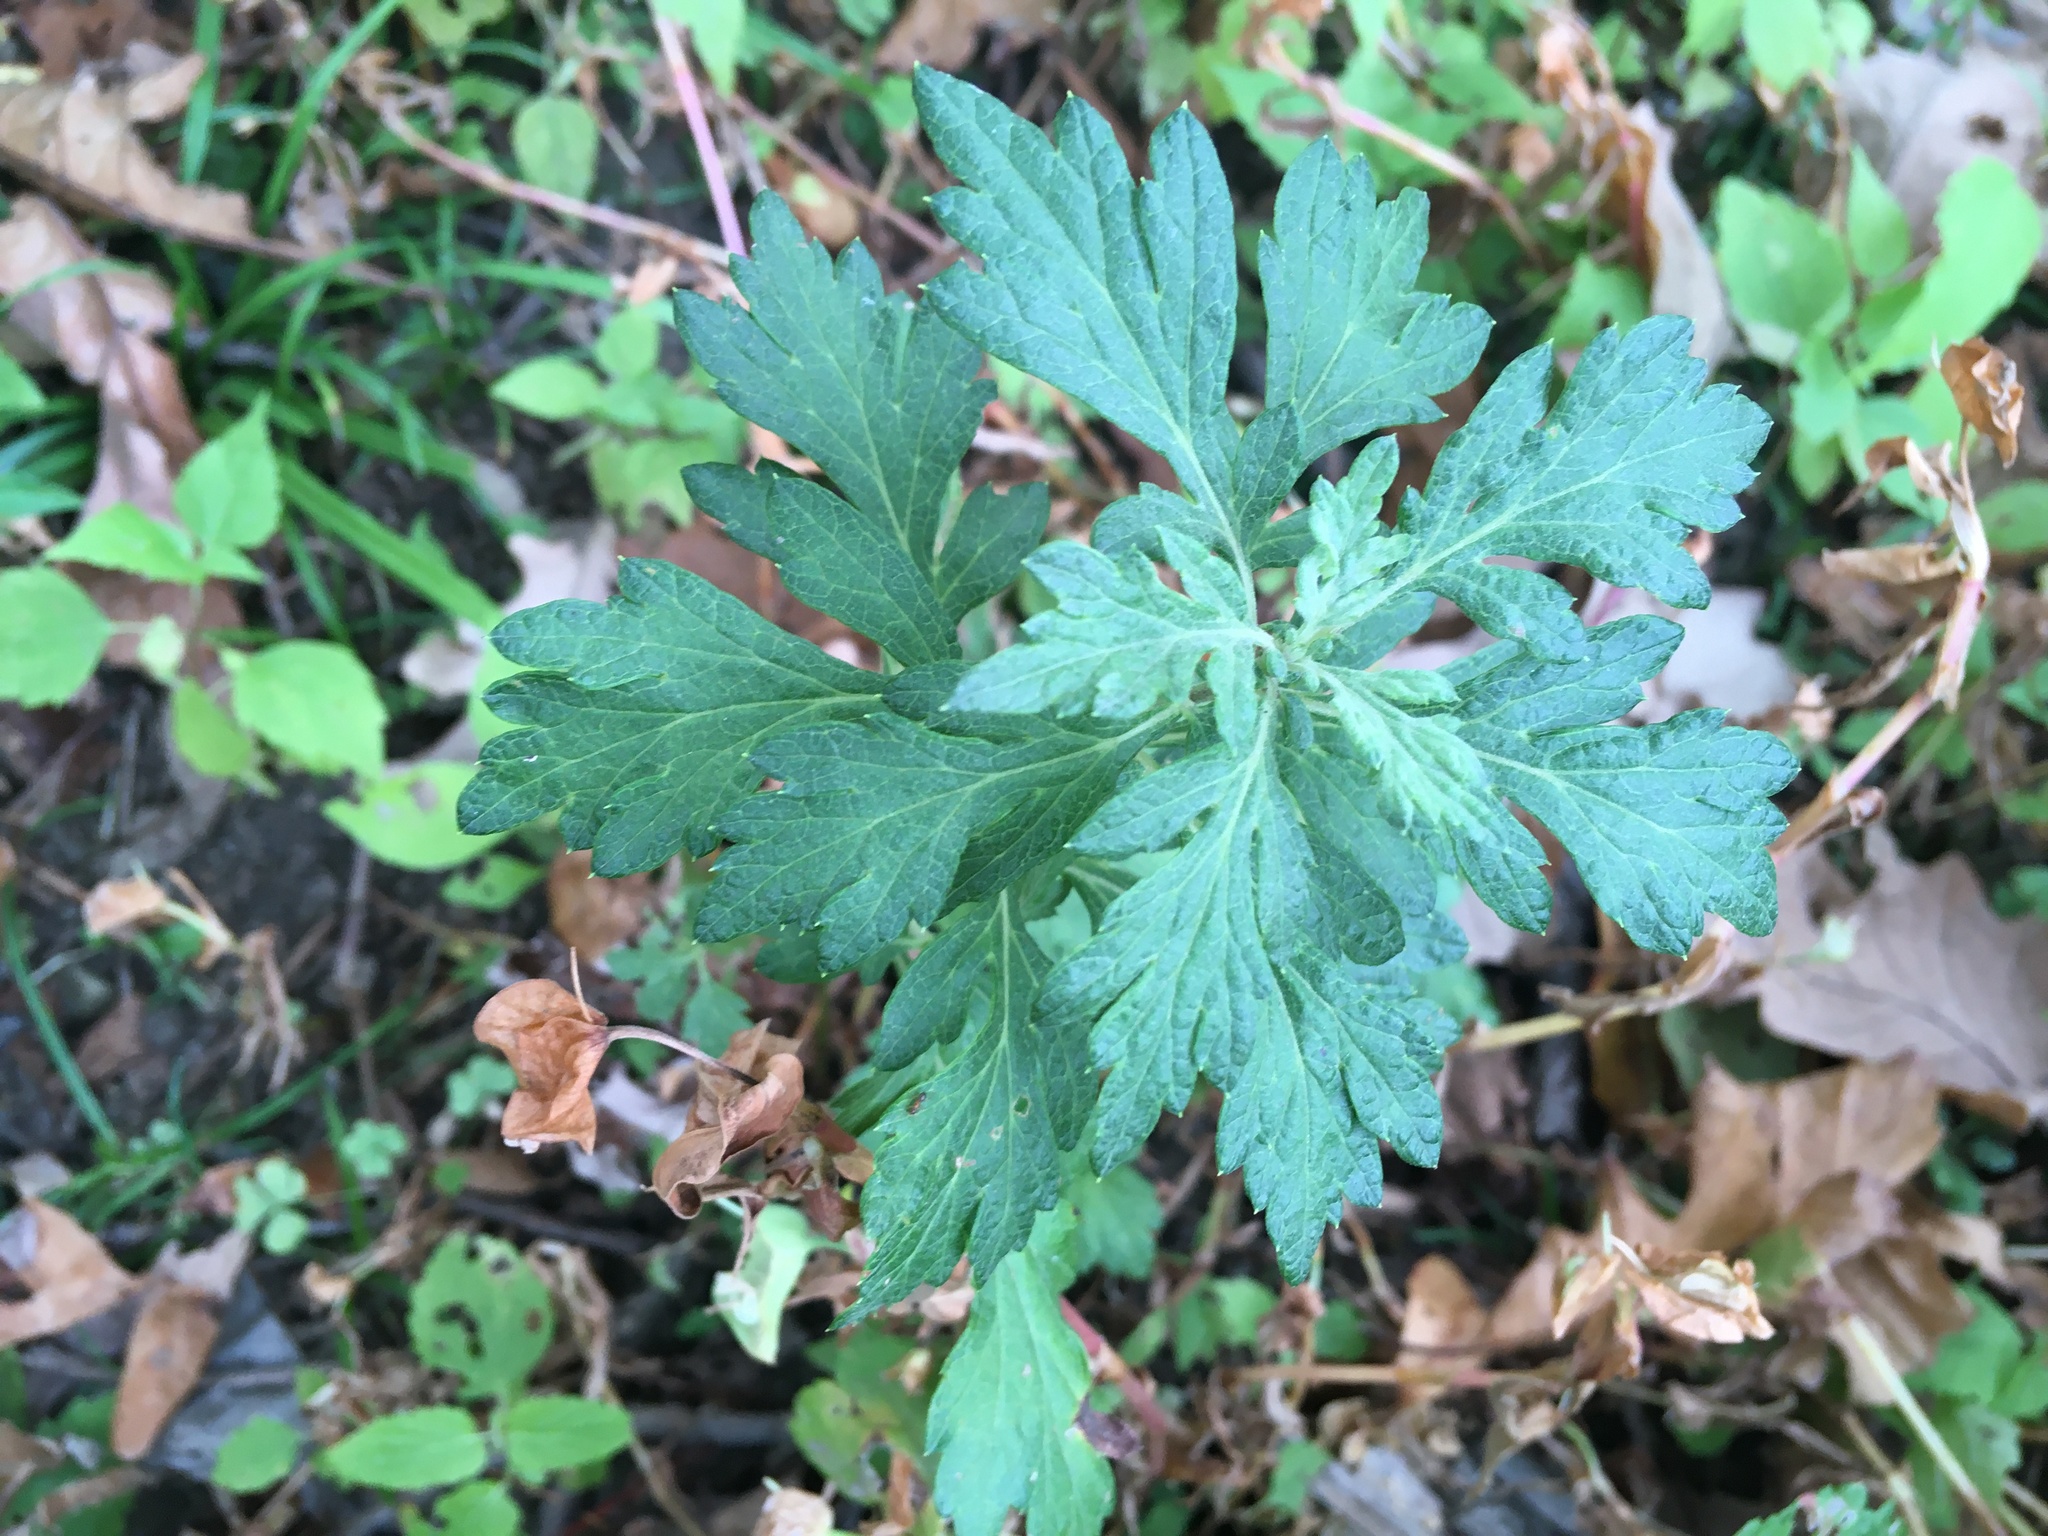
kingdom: Plantae
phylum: Tracheophyta
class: Magnoliopsida
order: Asterales
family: Asteraceae
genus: Artemisia
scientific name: Artemisia vulgaris
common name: Mugwort
